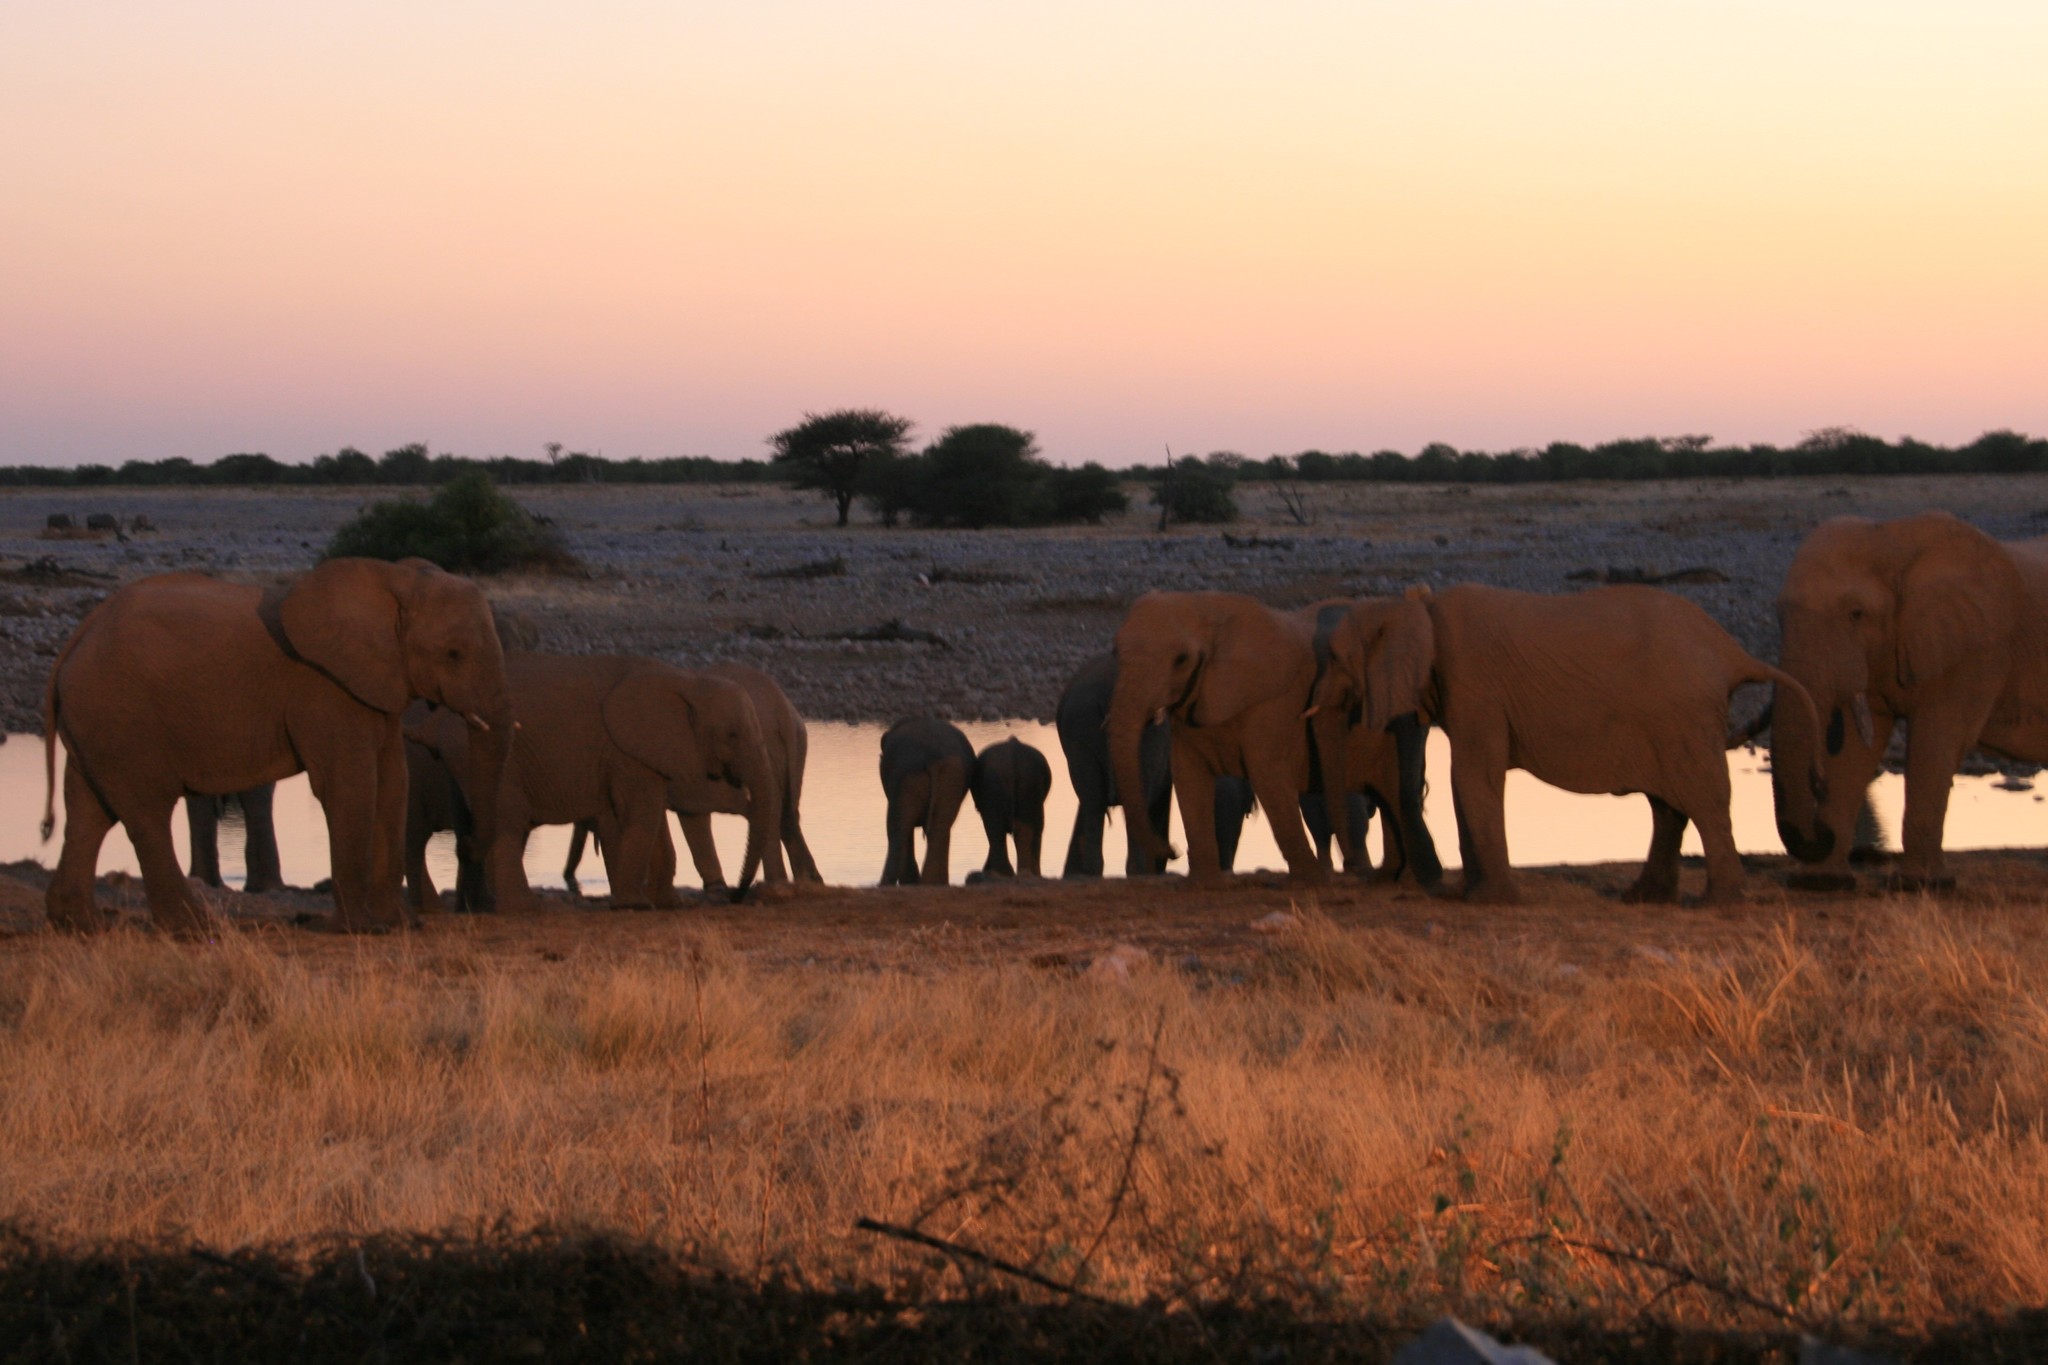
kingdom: Animalia
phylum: Chordata
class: Mammalia
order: Proboscidea
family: Elephantidae
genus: Loxodonta
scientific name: Loxodonta africana
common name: African elephant
